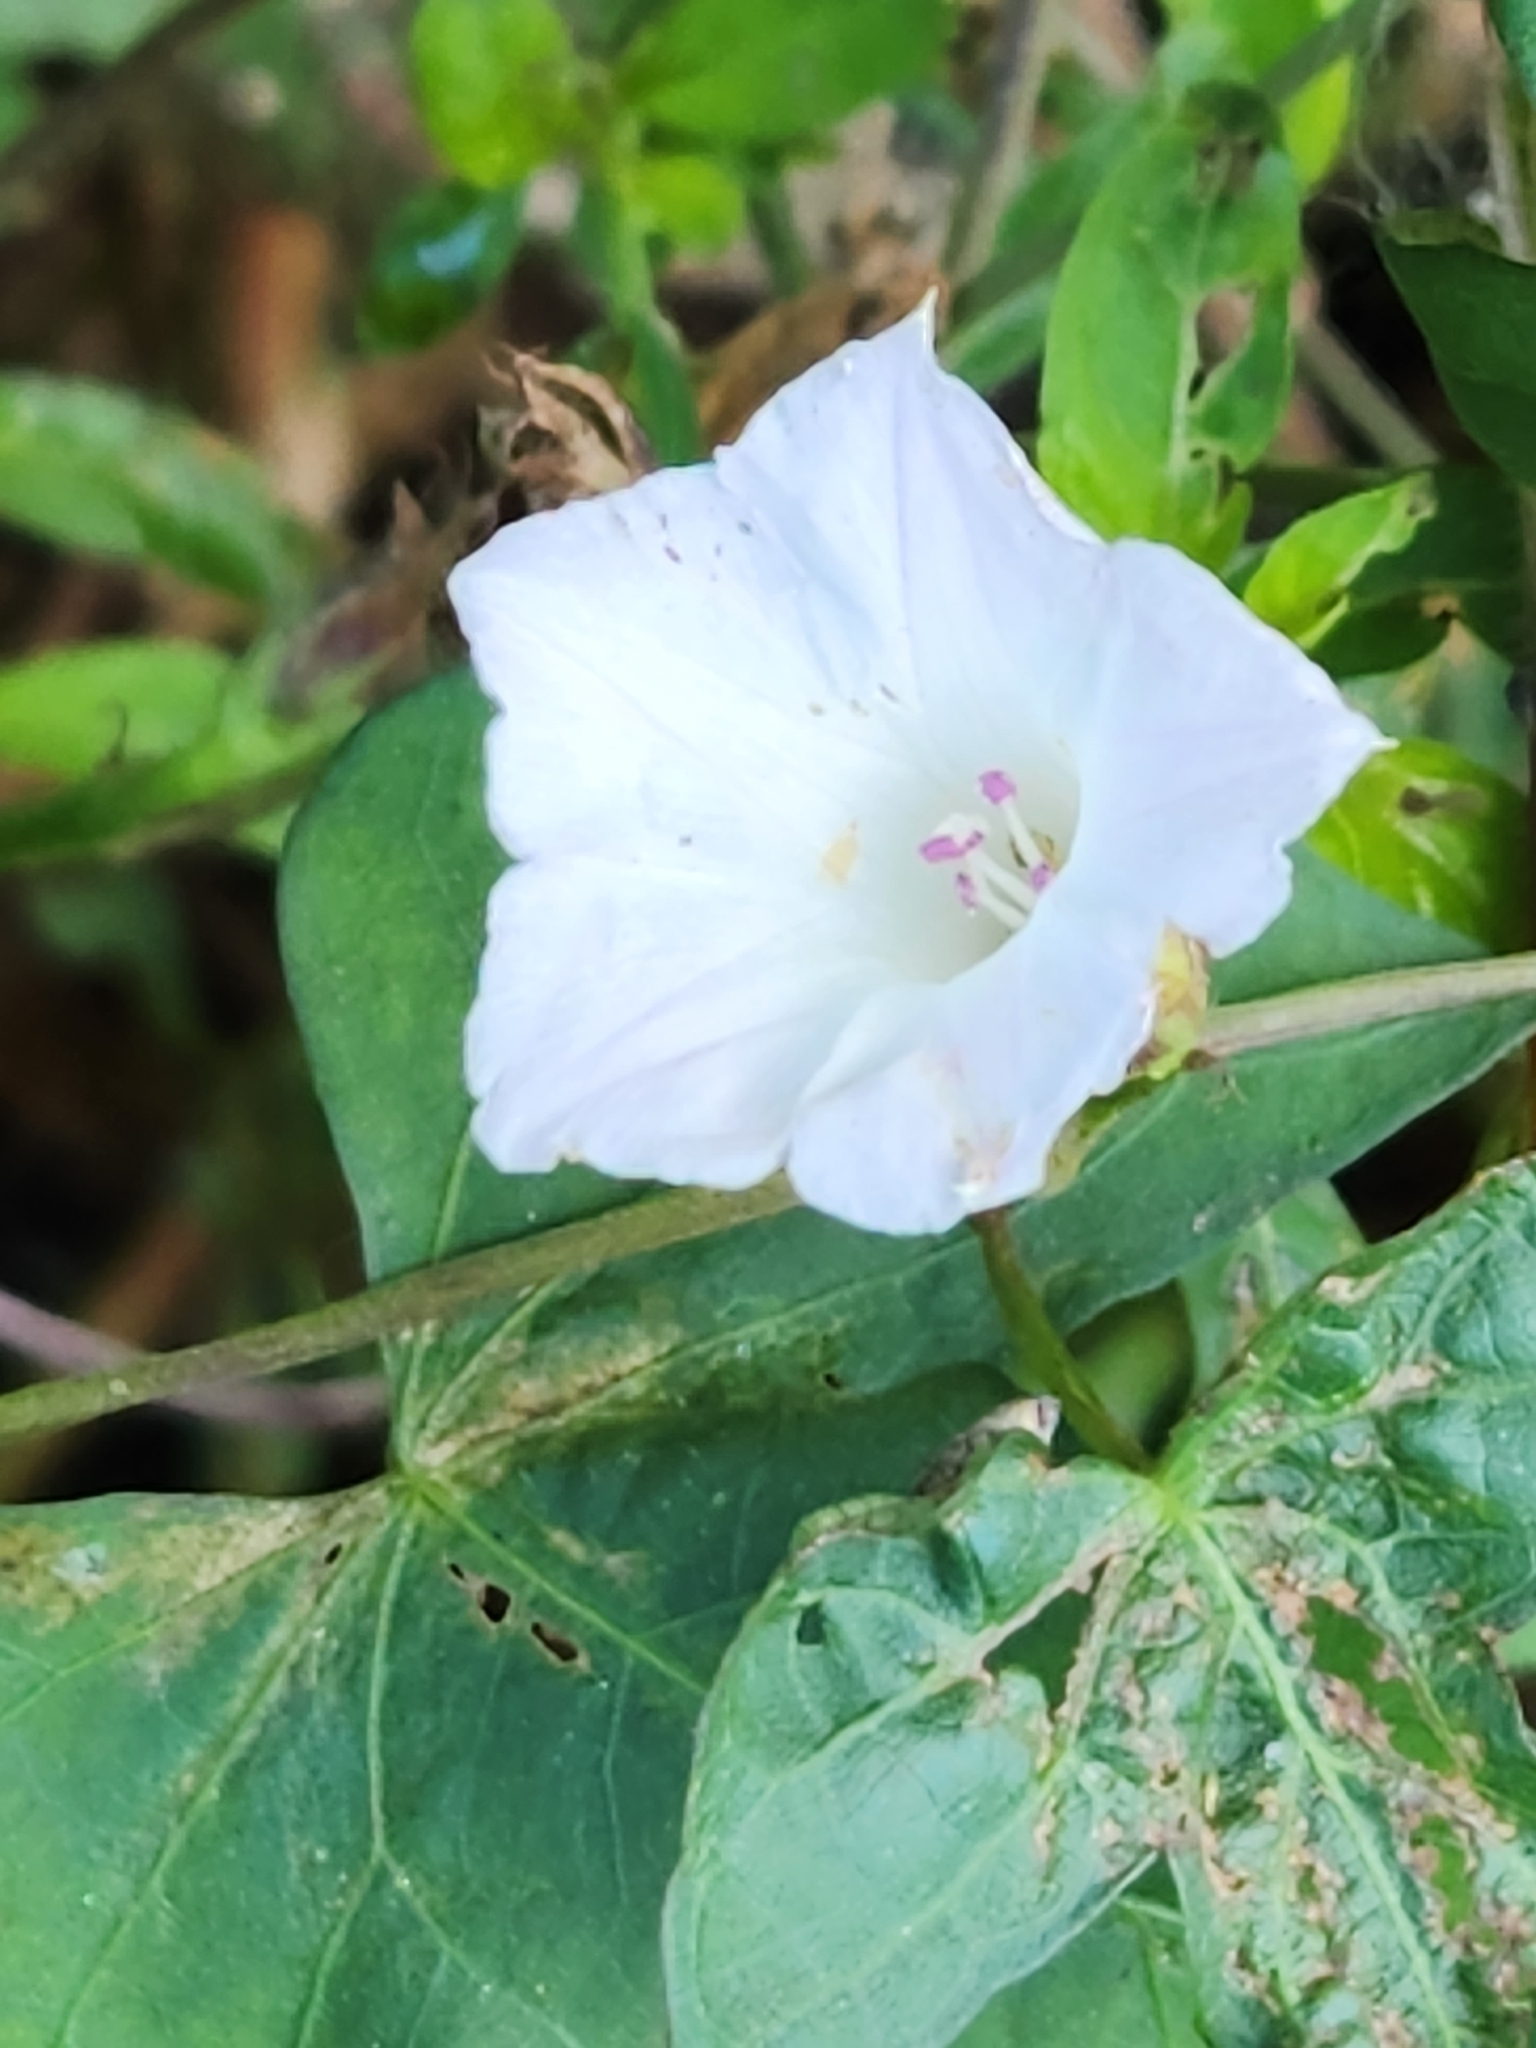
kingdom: Plantae
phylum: Tracheophyta
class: Magnoliopsida
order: Solanales
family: Convolvulaceae
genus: Ipomoea
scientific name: Ipomoea lacunosa
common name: White morning-glory
